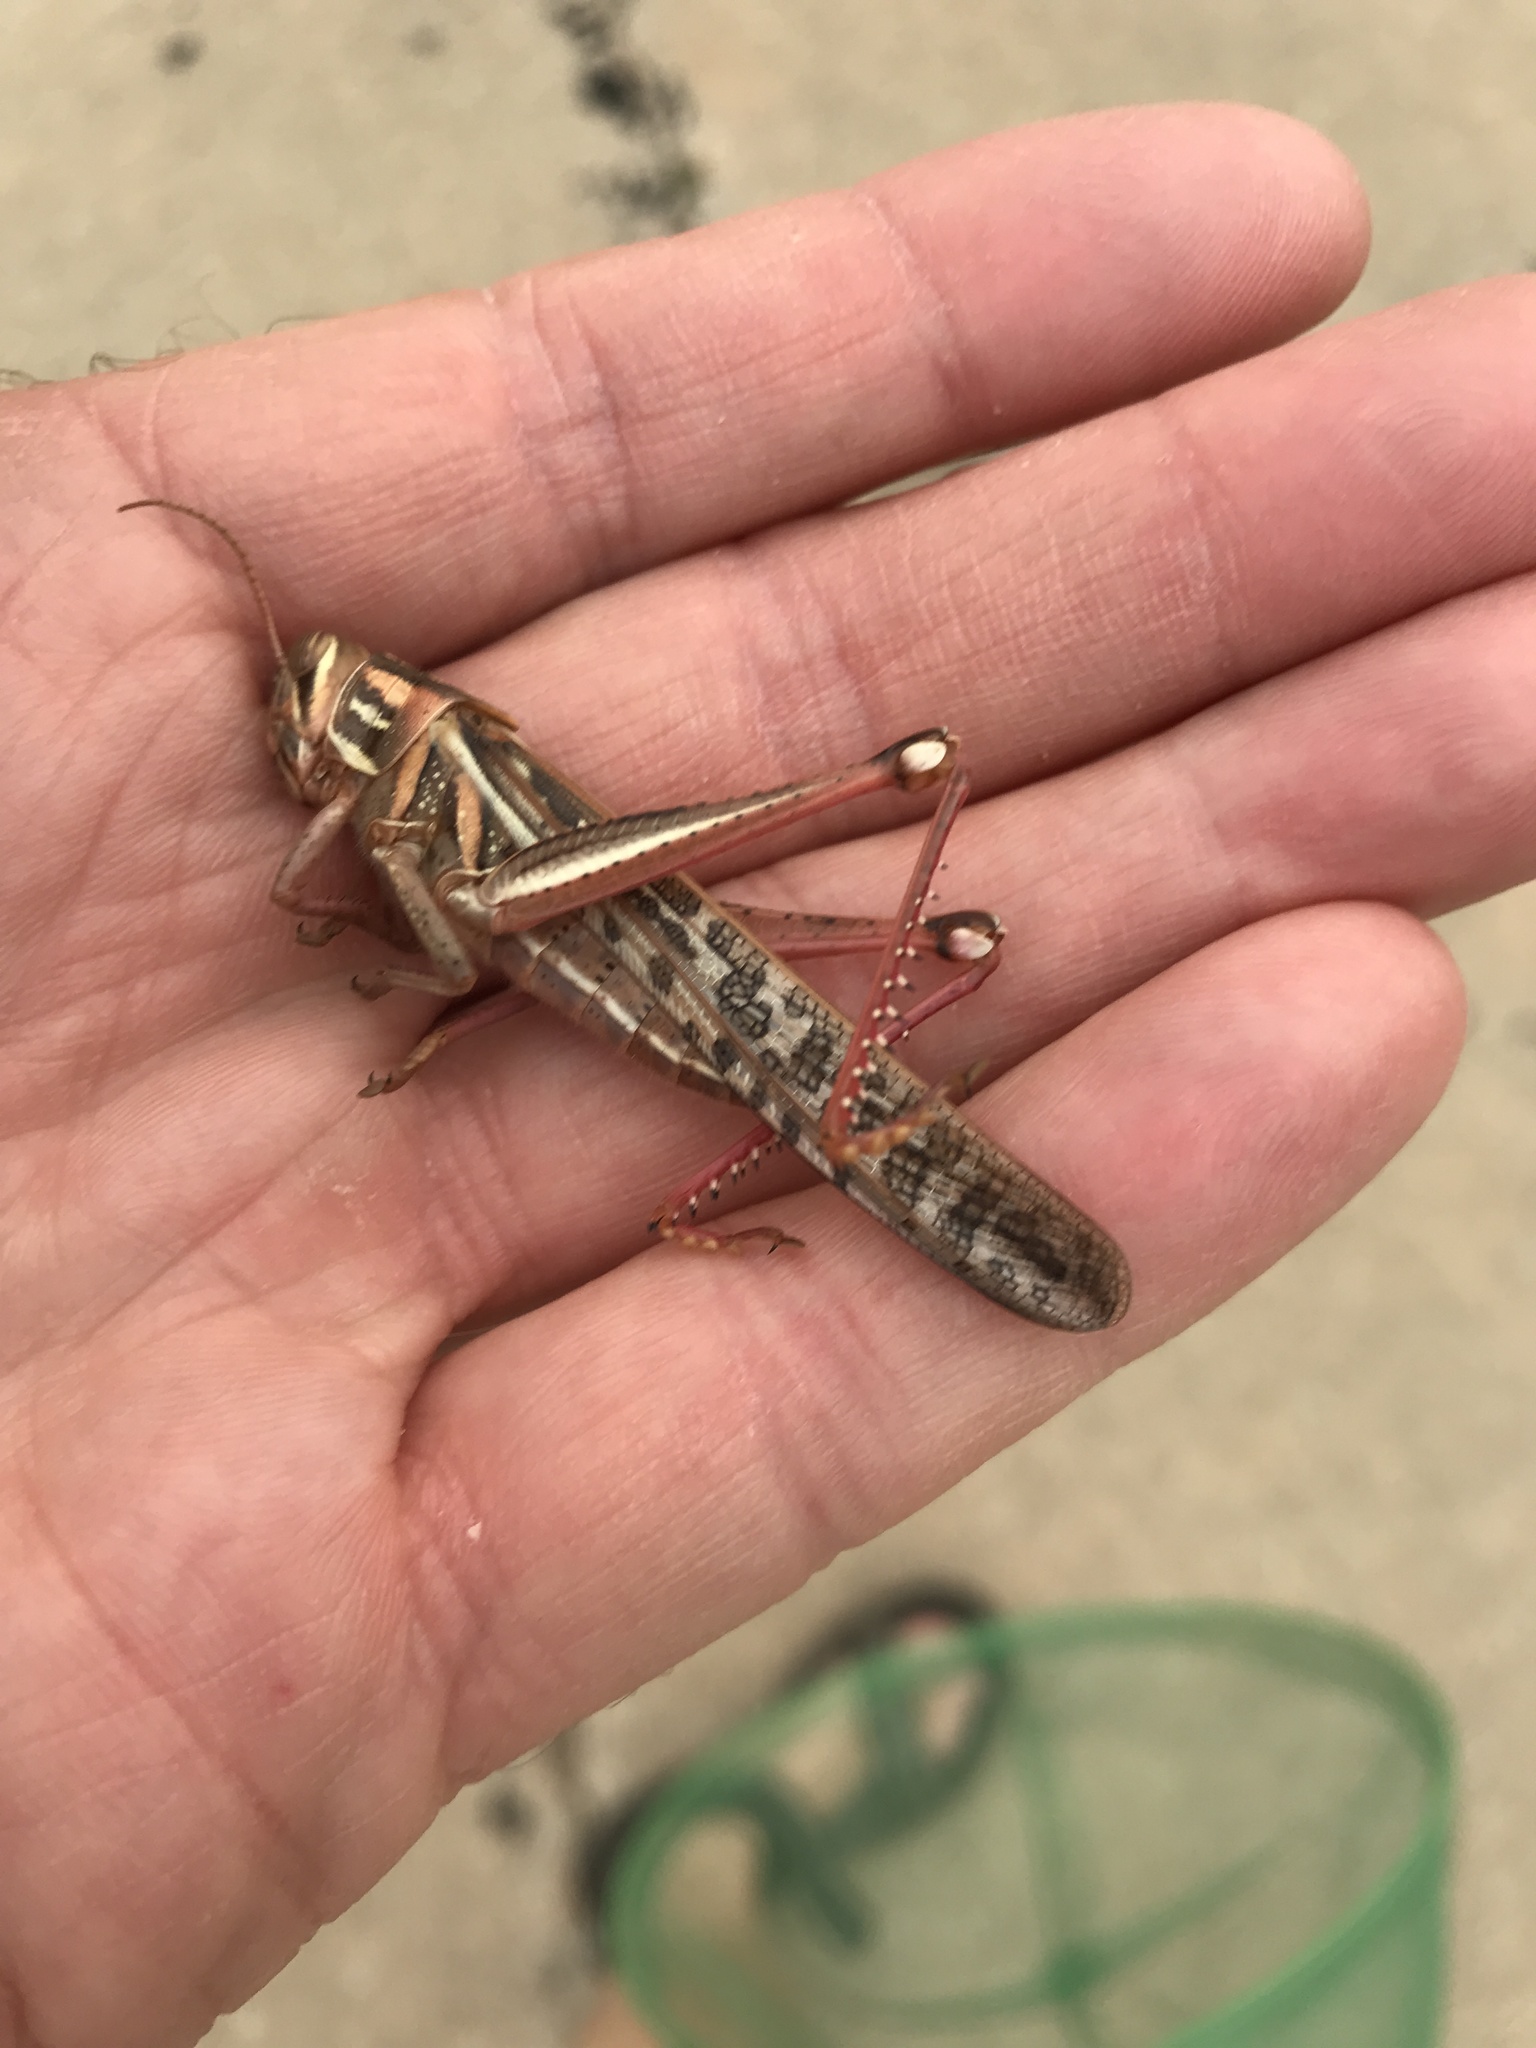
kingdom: Animalia
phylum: Arthropoda
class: Insecta
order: Orthoptera
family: Acrididae
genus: Schistocerca
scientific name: Schistocerca americana
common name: American bird locust
